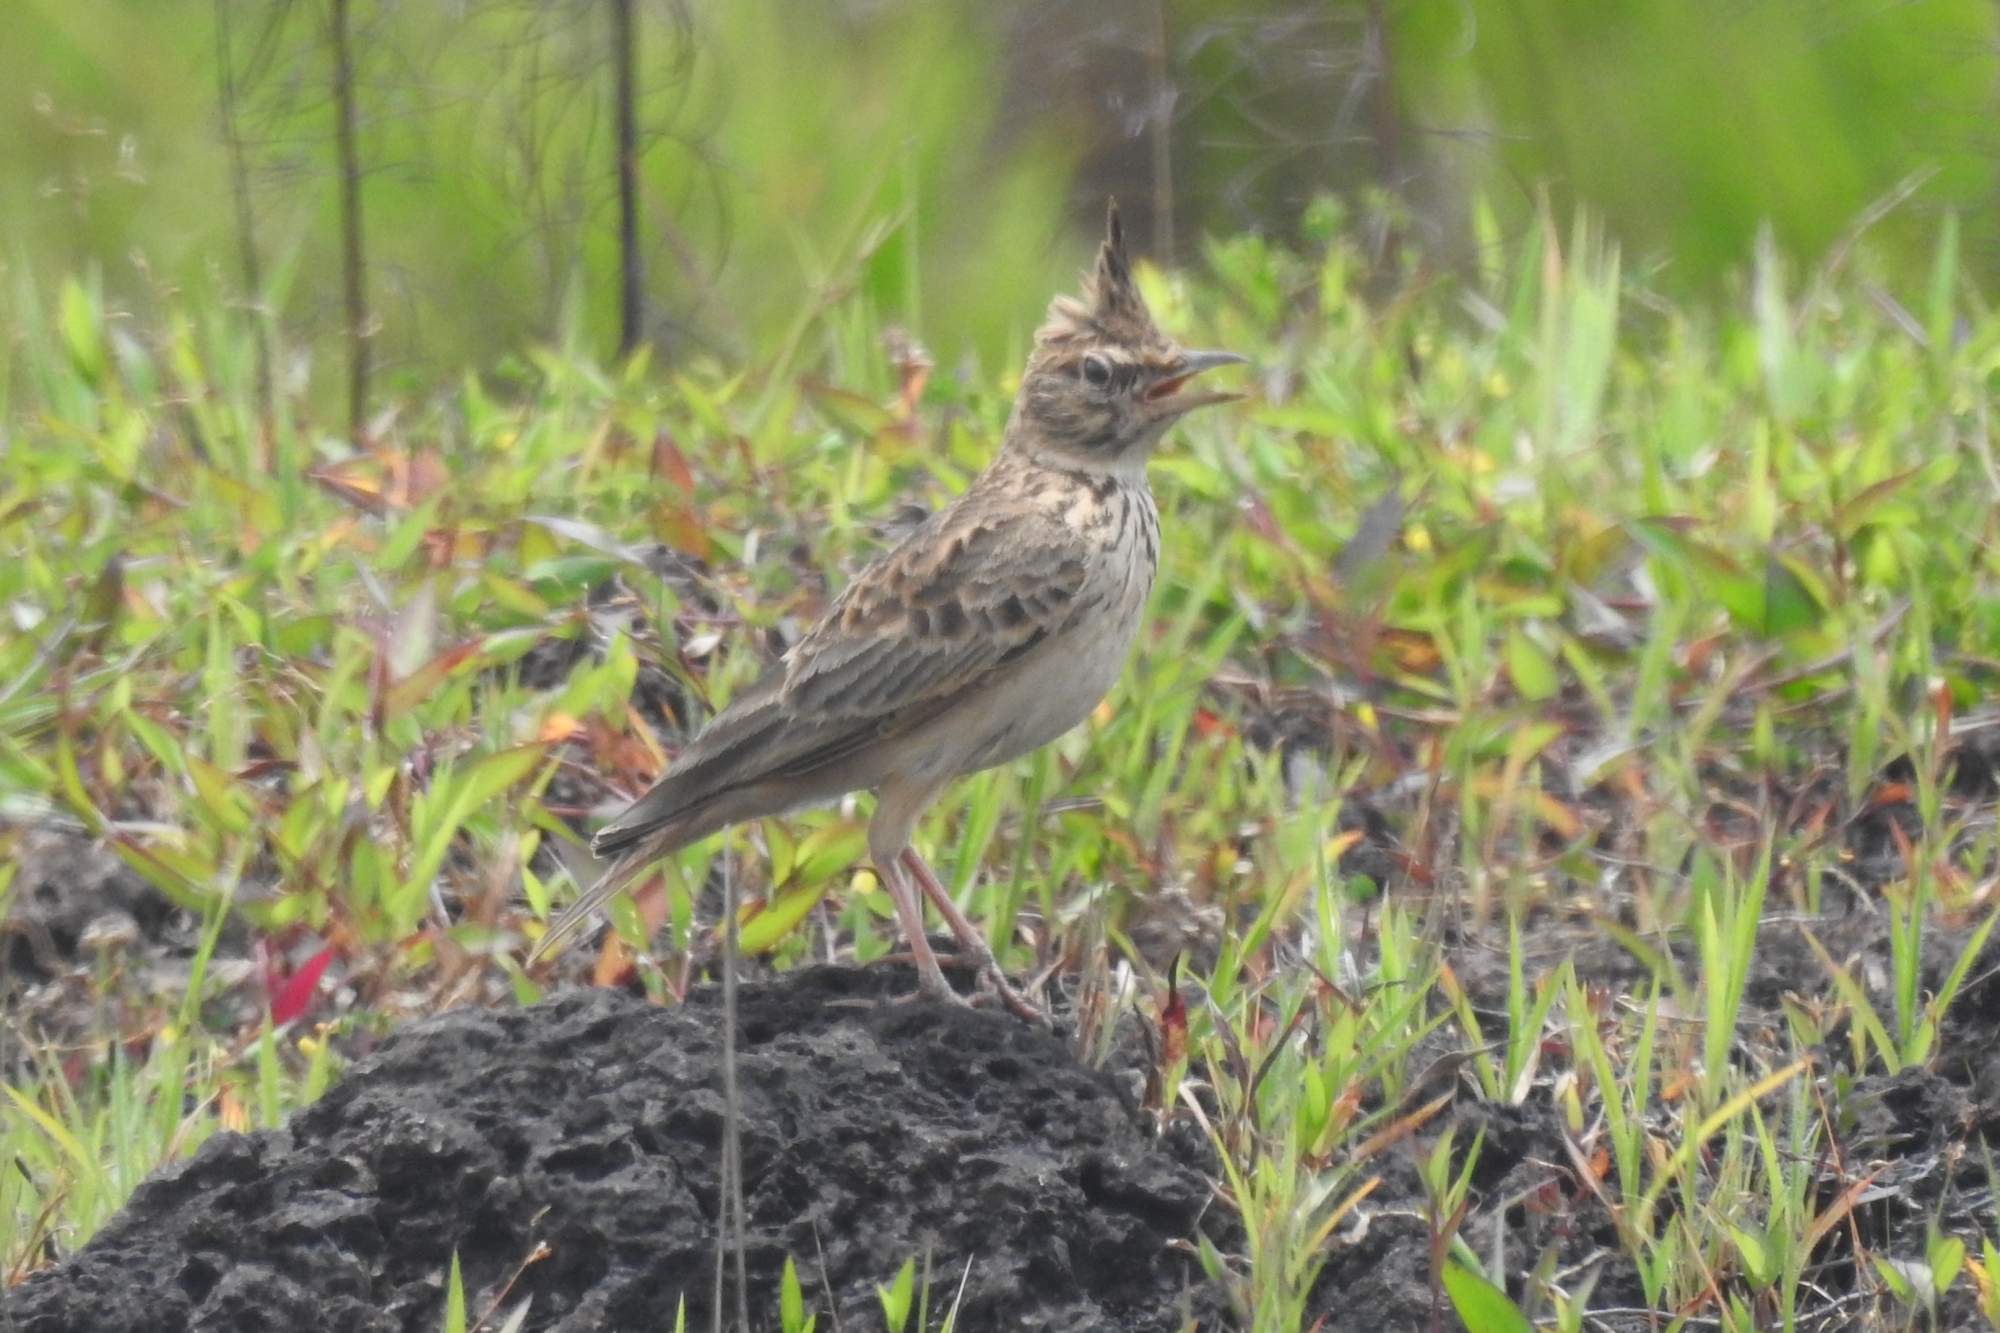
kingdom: Animalia
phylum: Chordata
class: Aves
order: Passeriformes
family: Alaudidae
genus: Galerida
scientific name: Galerida malabarica
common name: Malabar lark
